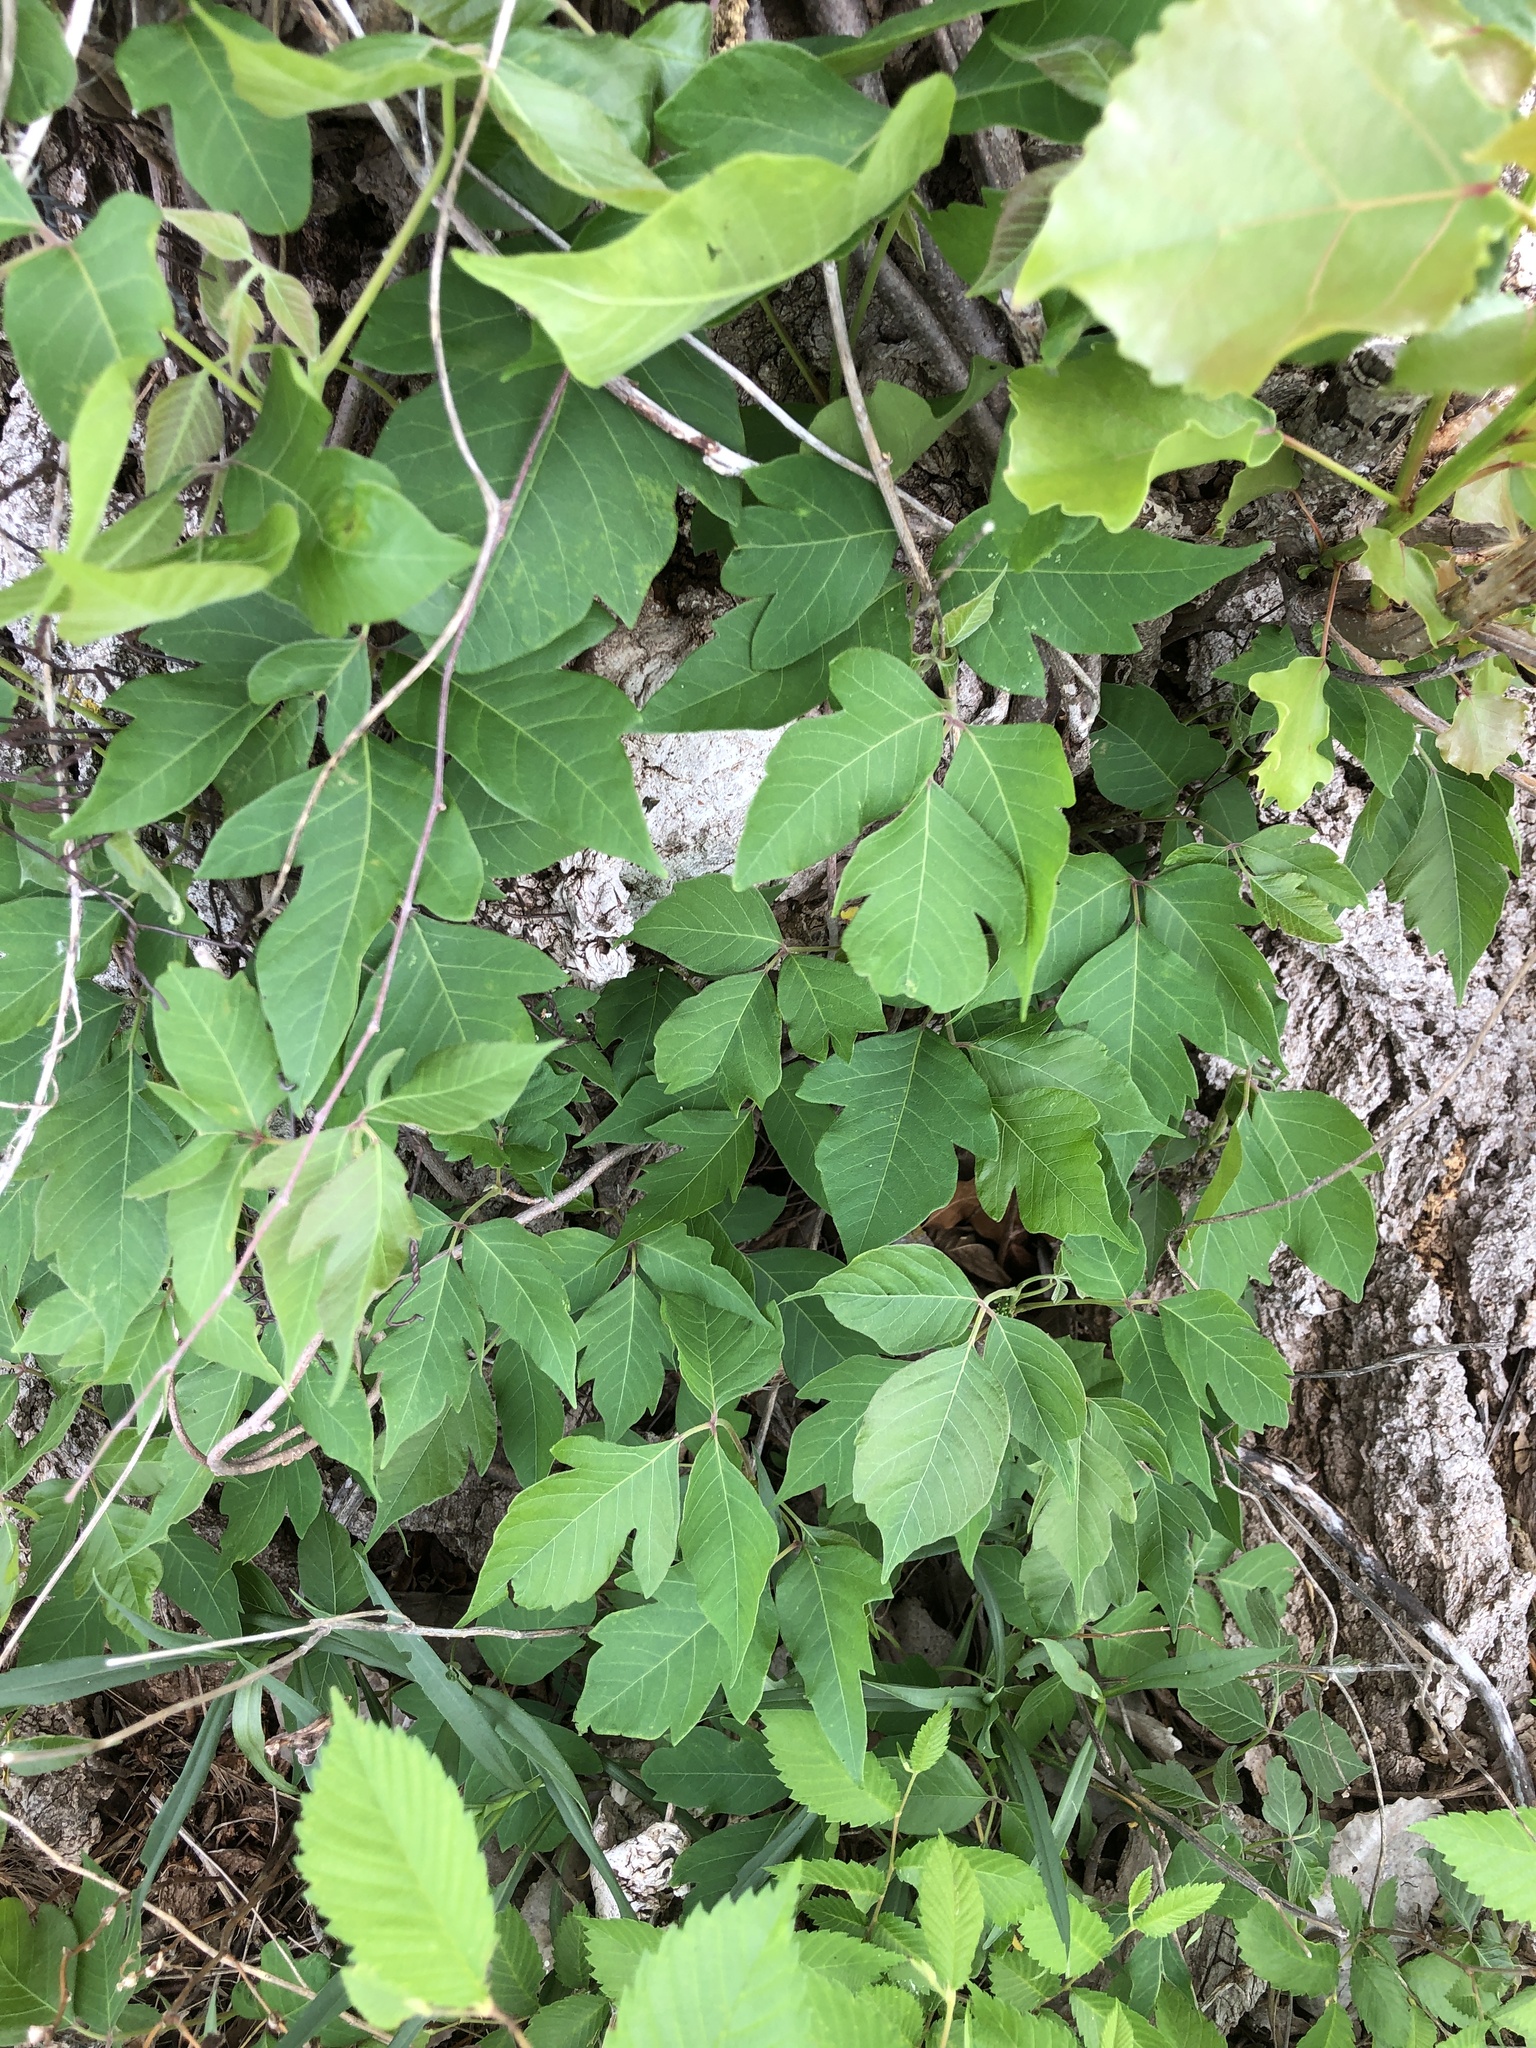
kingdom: Plantae
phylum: Tracheophyta
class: Magnoliopsida
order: Sapindales
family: Anacardiaceae
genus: Toxicodendron
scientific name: Toxicodendron radicans
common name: Poison ivy
